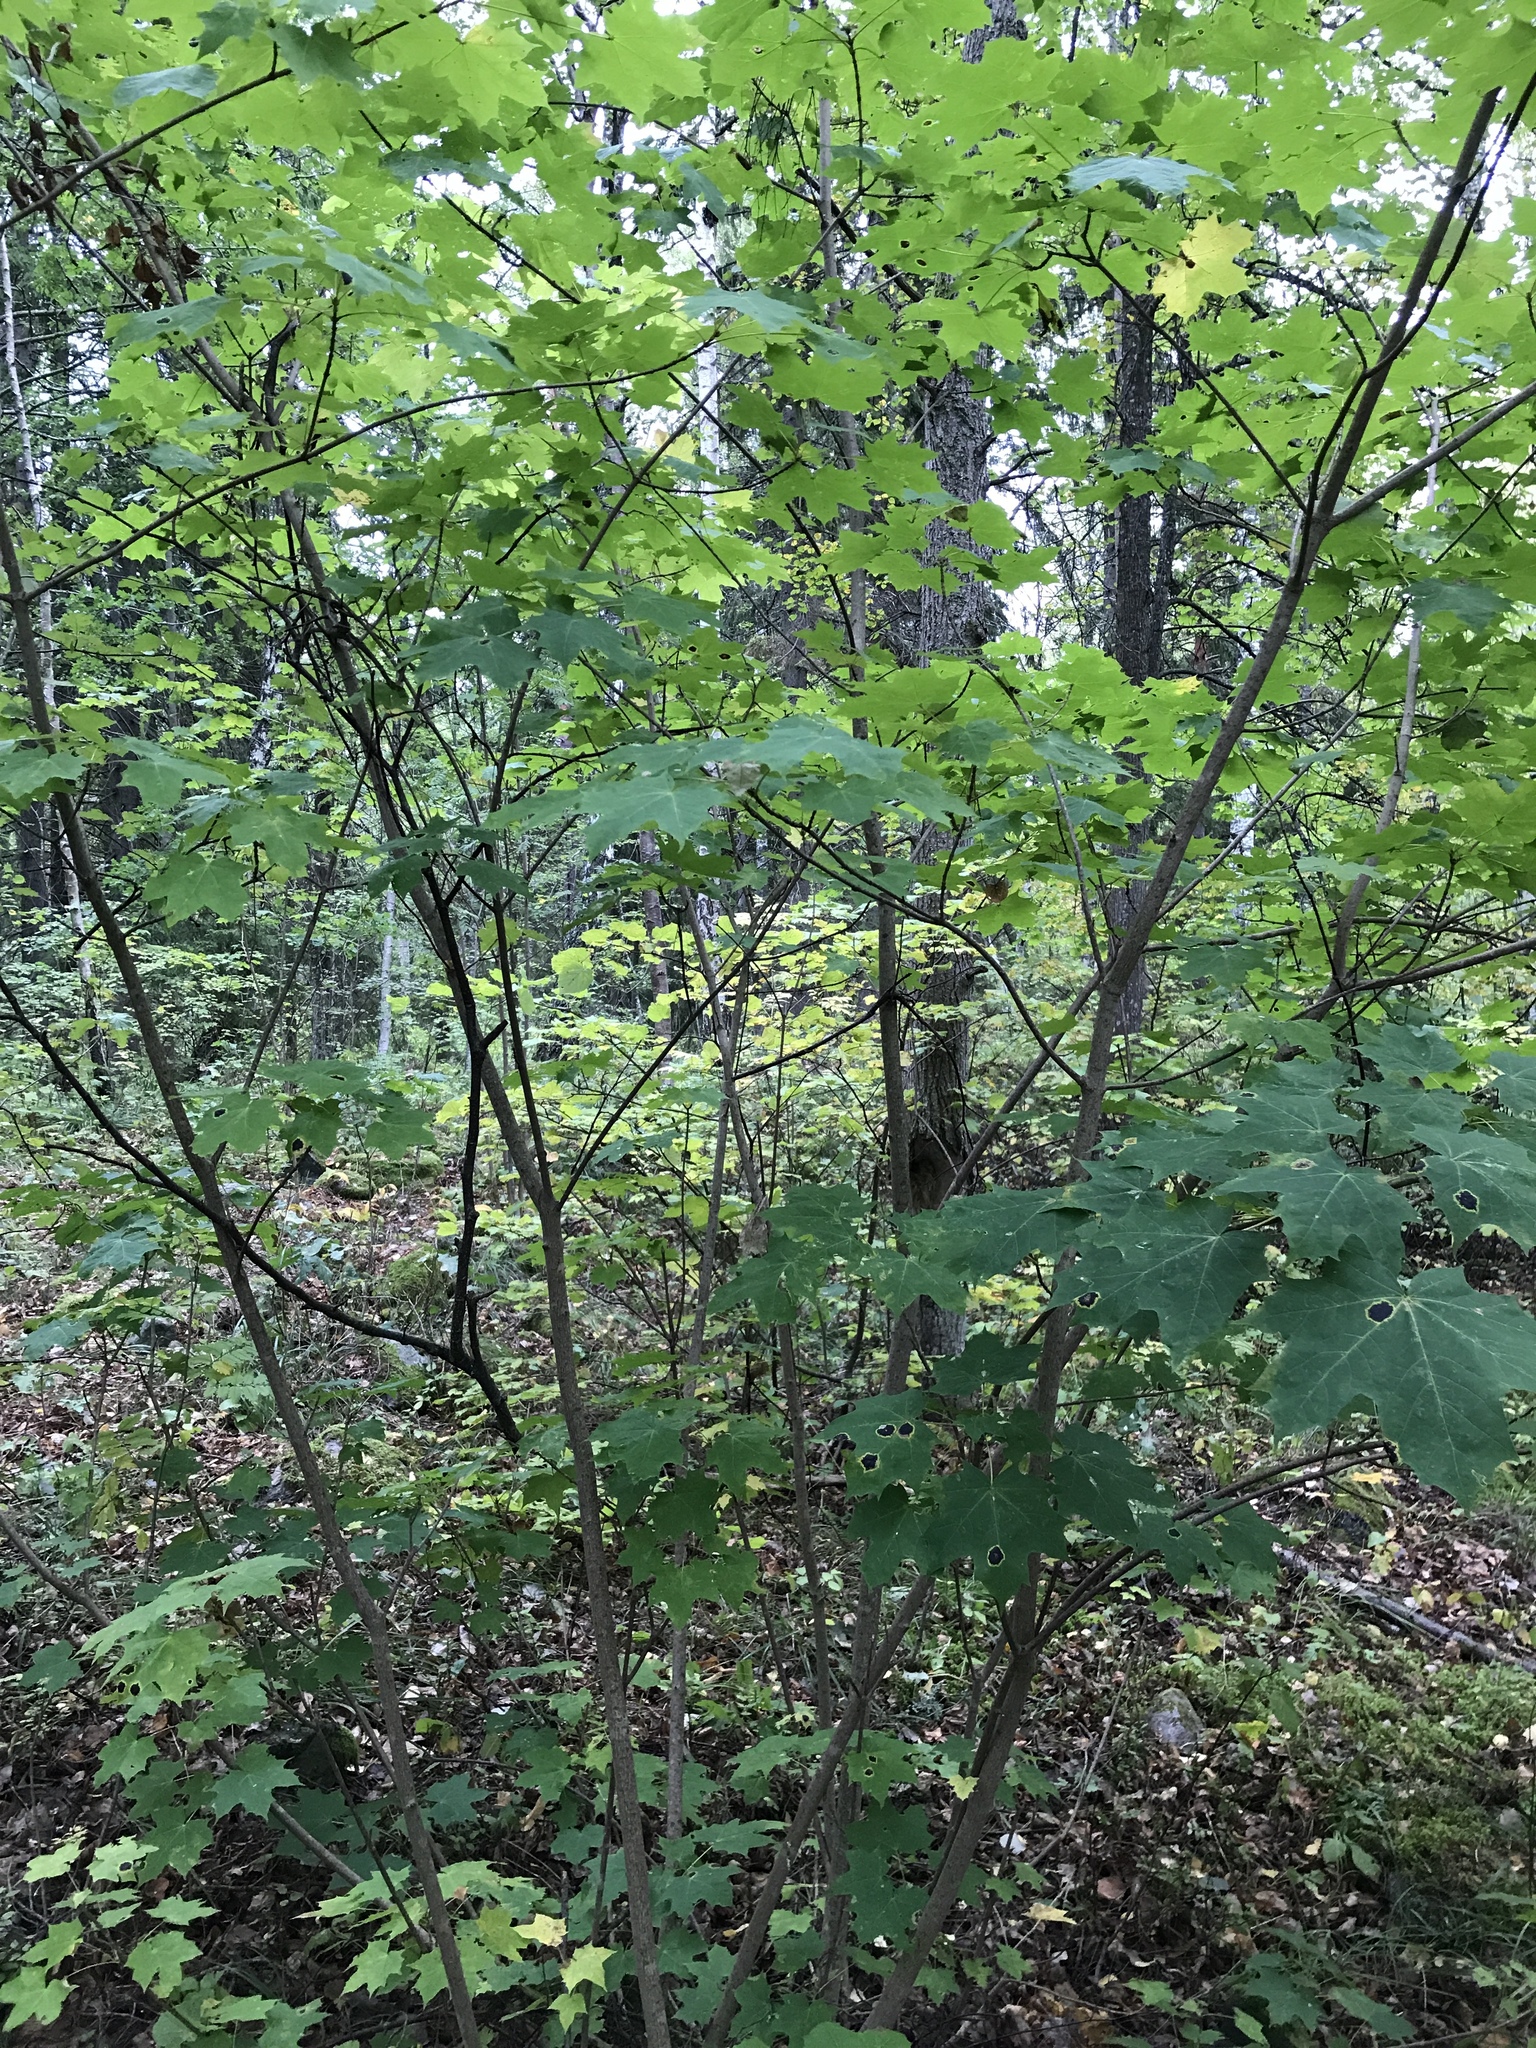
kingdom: Plantae
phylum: Tracheophyta
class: Magnoliopsida
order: Sapindales
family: Sapindaceae
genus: Acer
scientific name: Acer platanoides
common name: Norway maple
